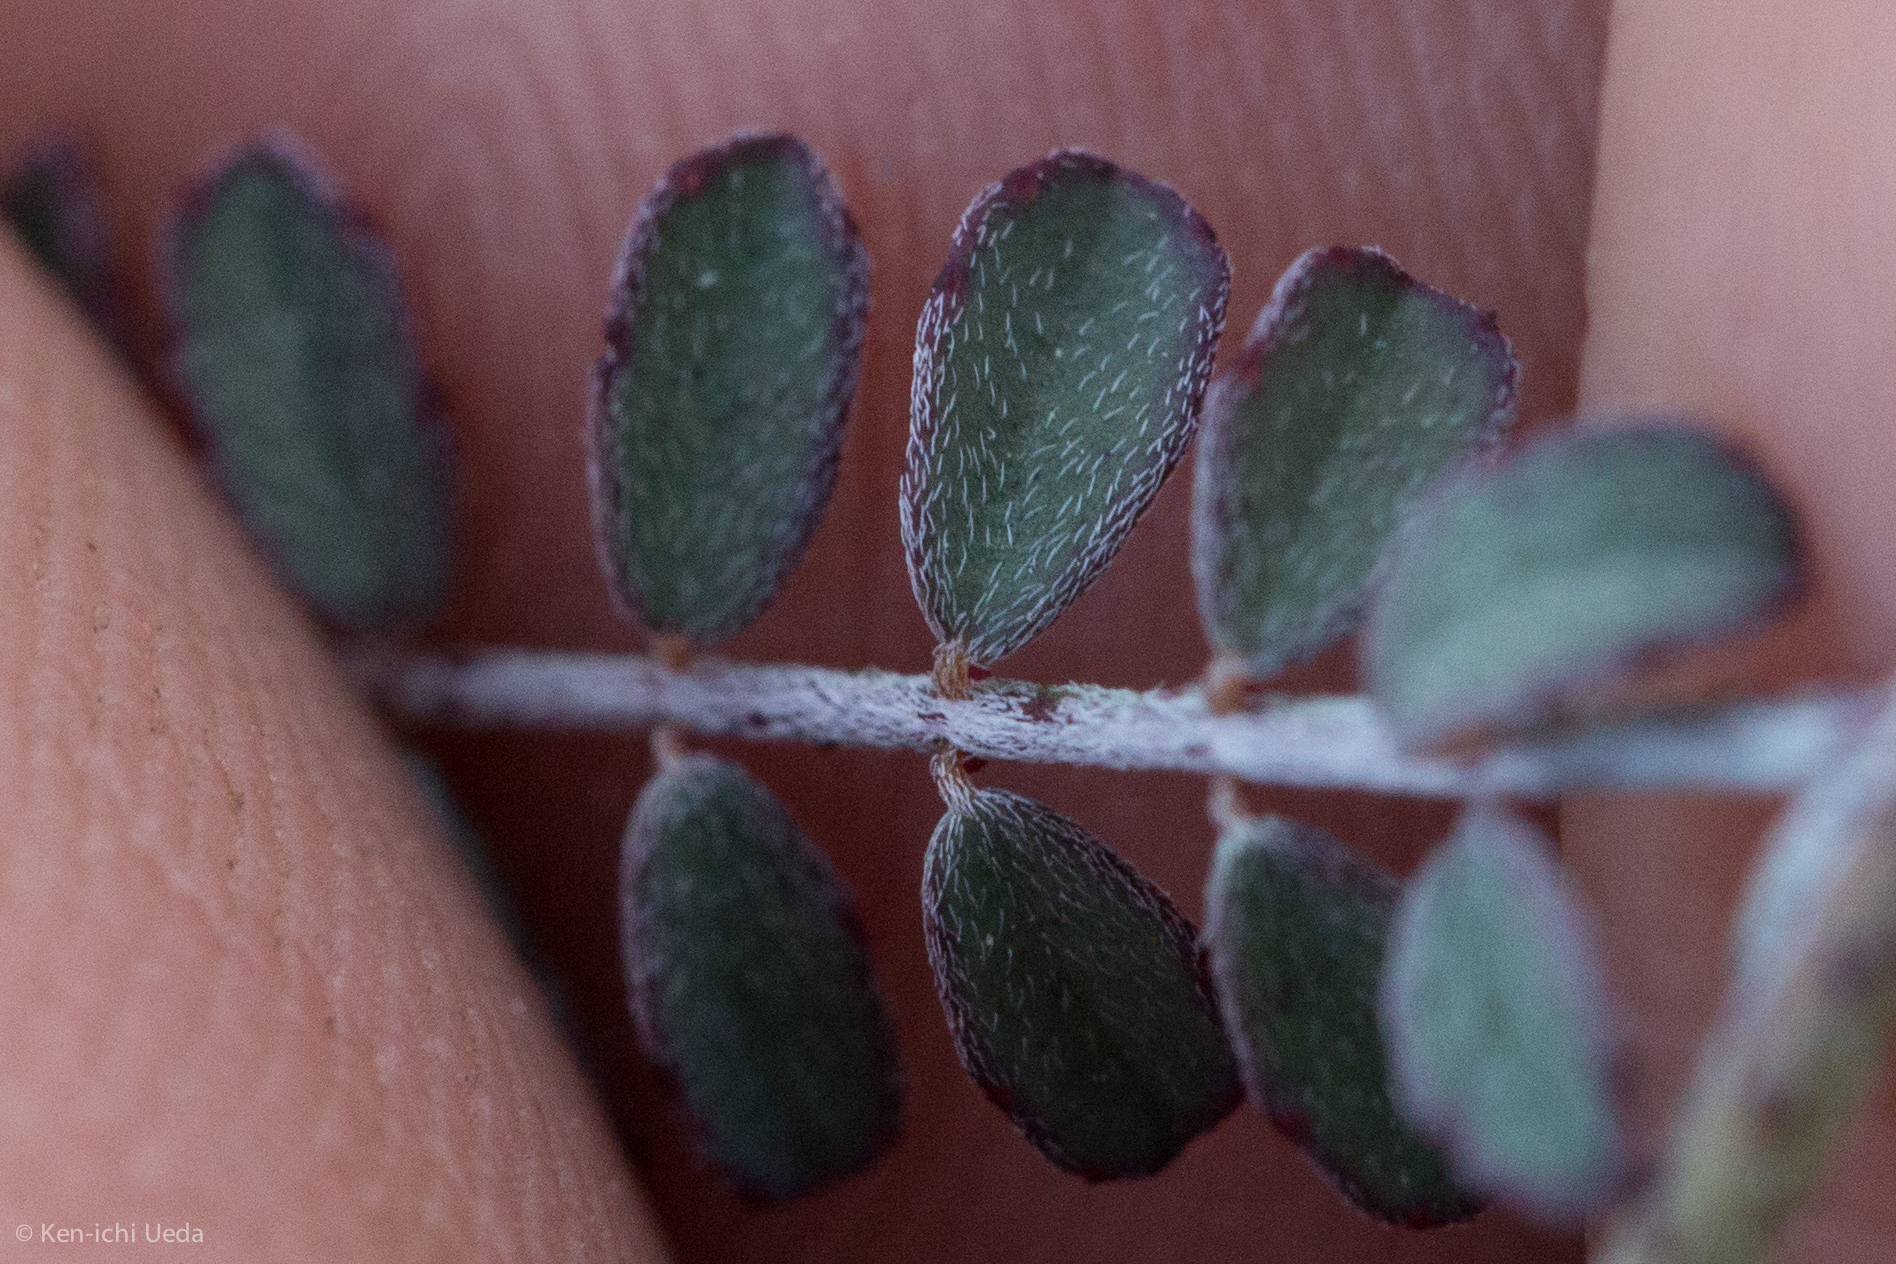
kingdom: Plantae
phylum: Tracheophyta
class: Magnoliopsida
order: Fabales
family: Fabaceae
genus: Marina
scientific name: Marina parryi
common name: Parry's marina
